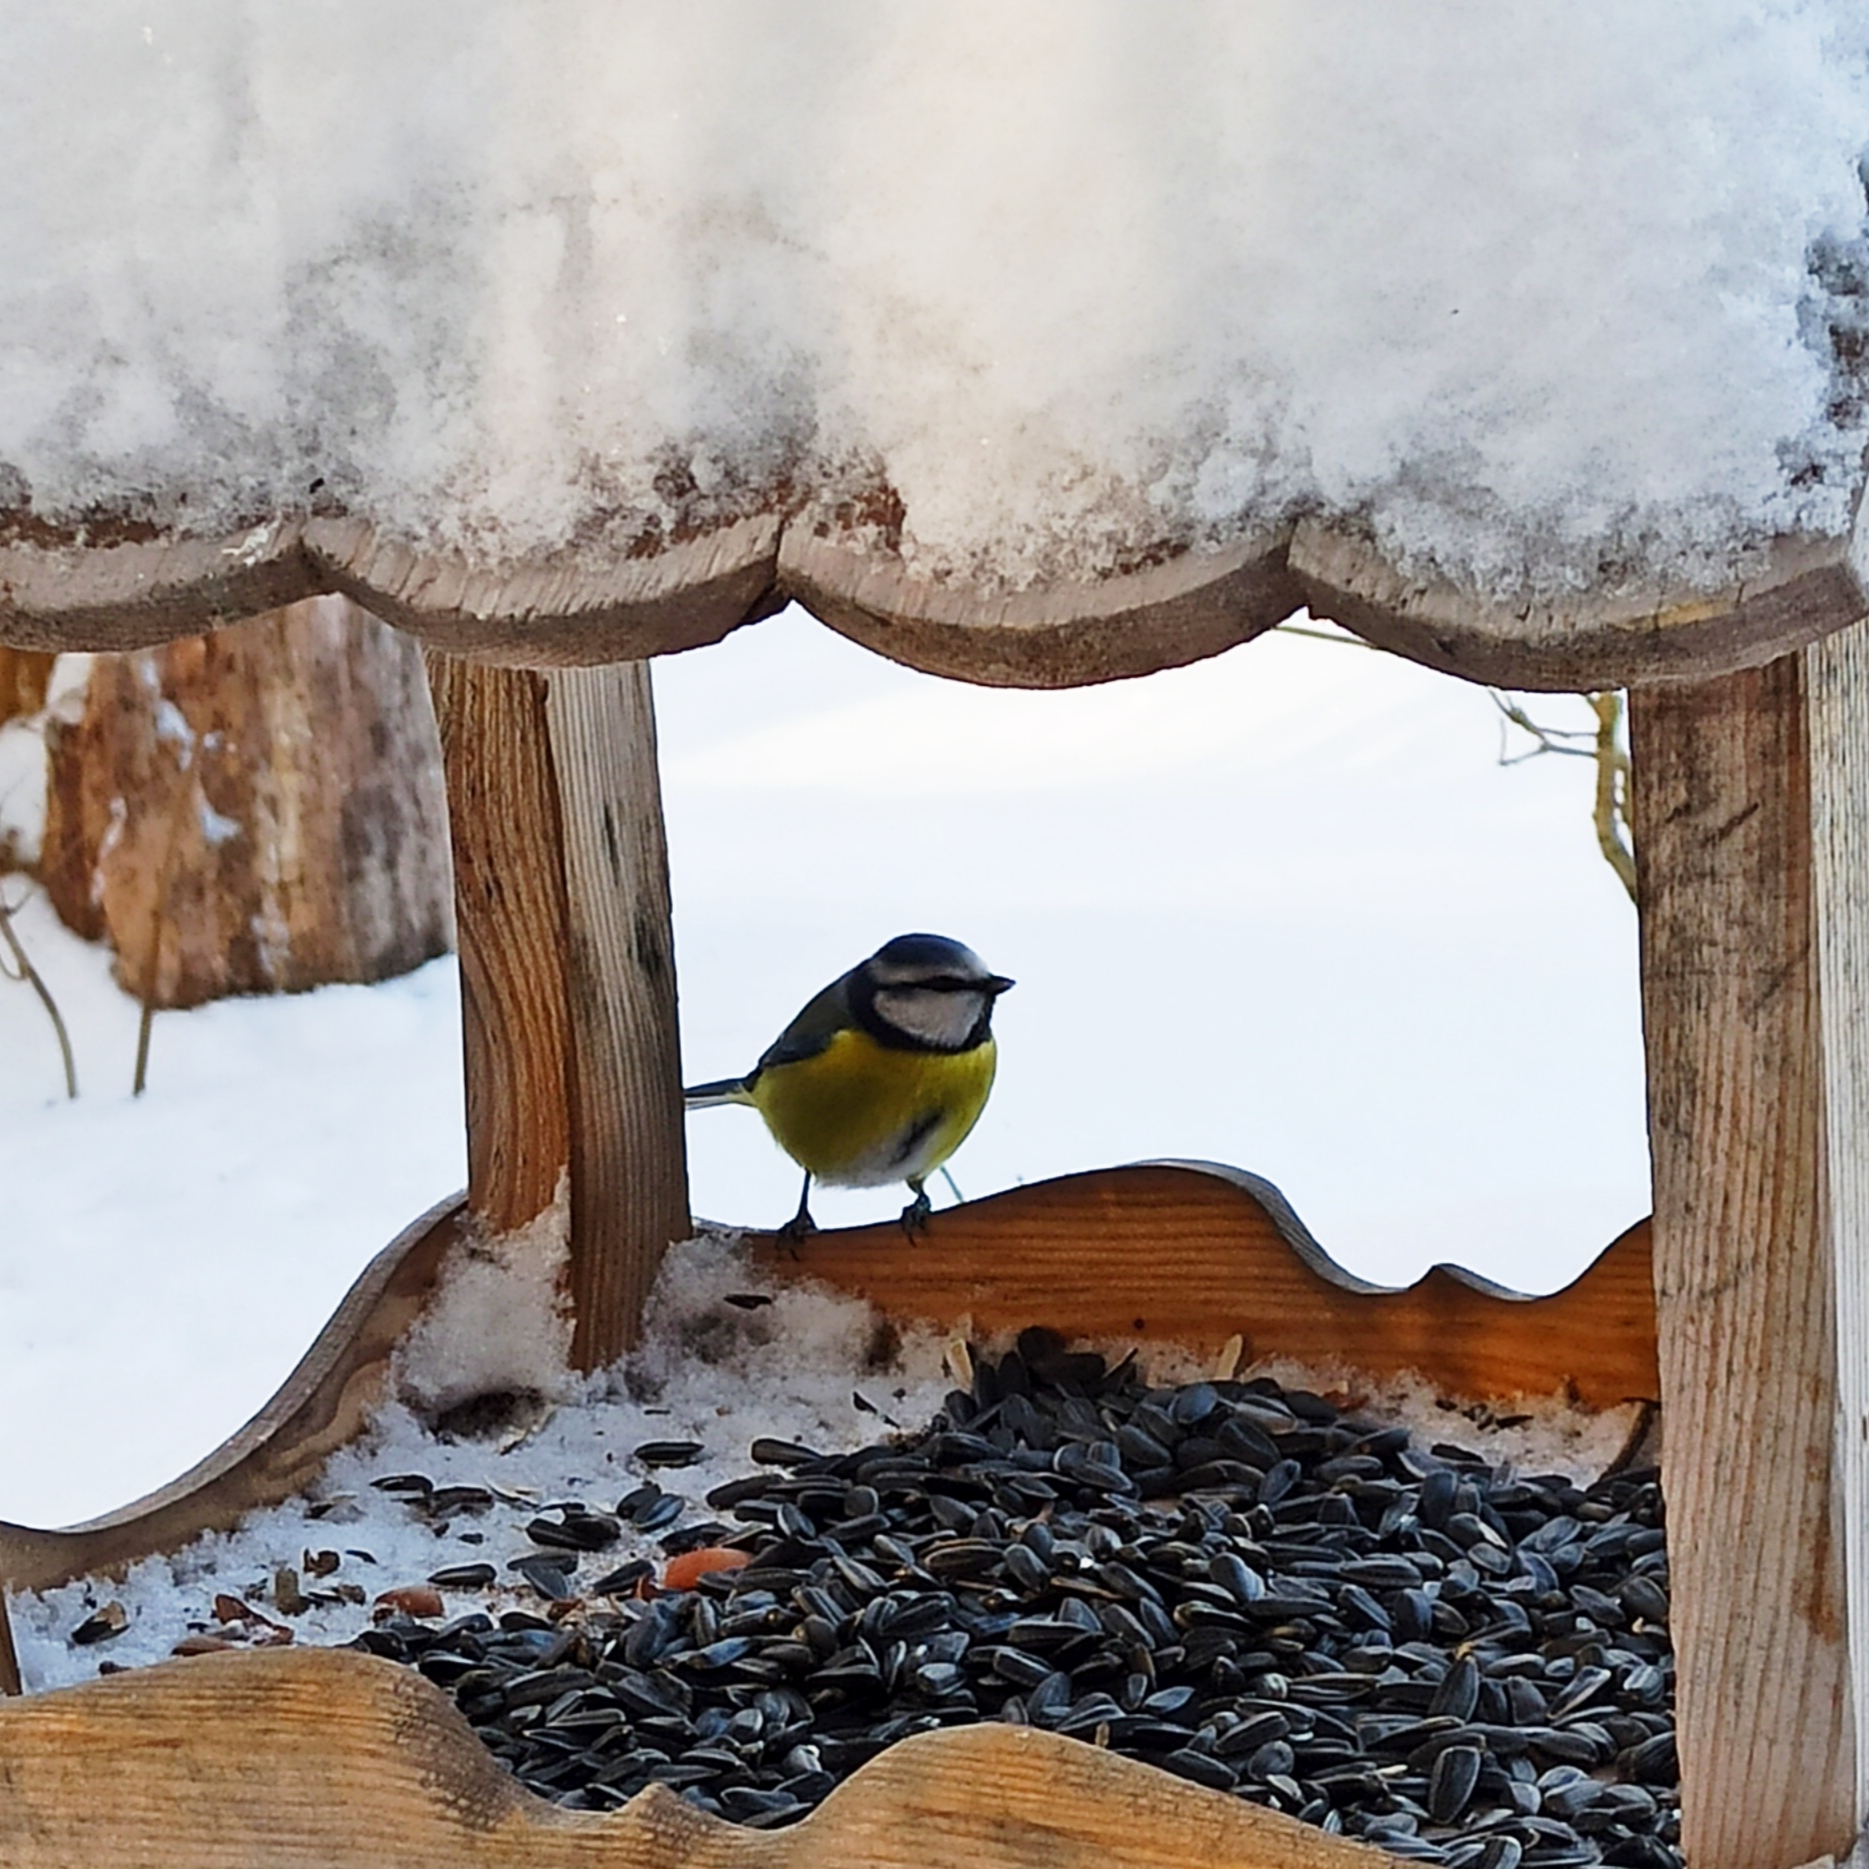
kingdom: Animalia
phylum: Chordata
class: Aves
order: Passeriformes
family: Paridae
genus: Cyanistes
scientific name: Cyanistes caeruleus
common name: Eurasian blue tit
